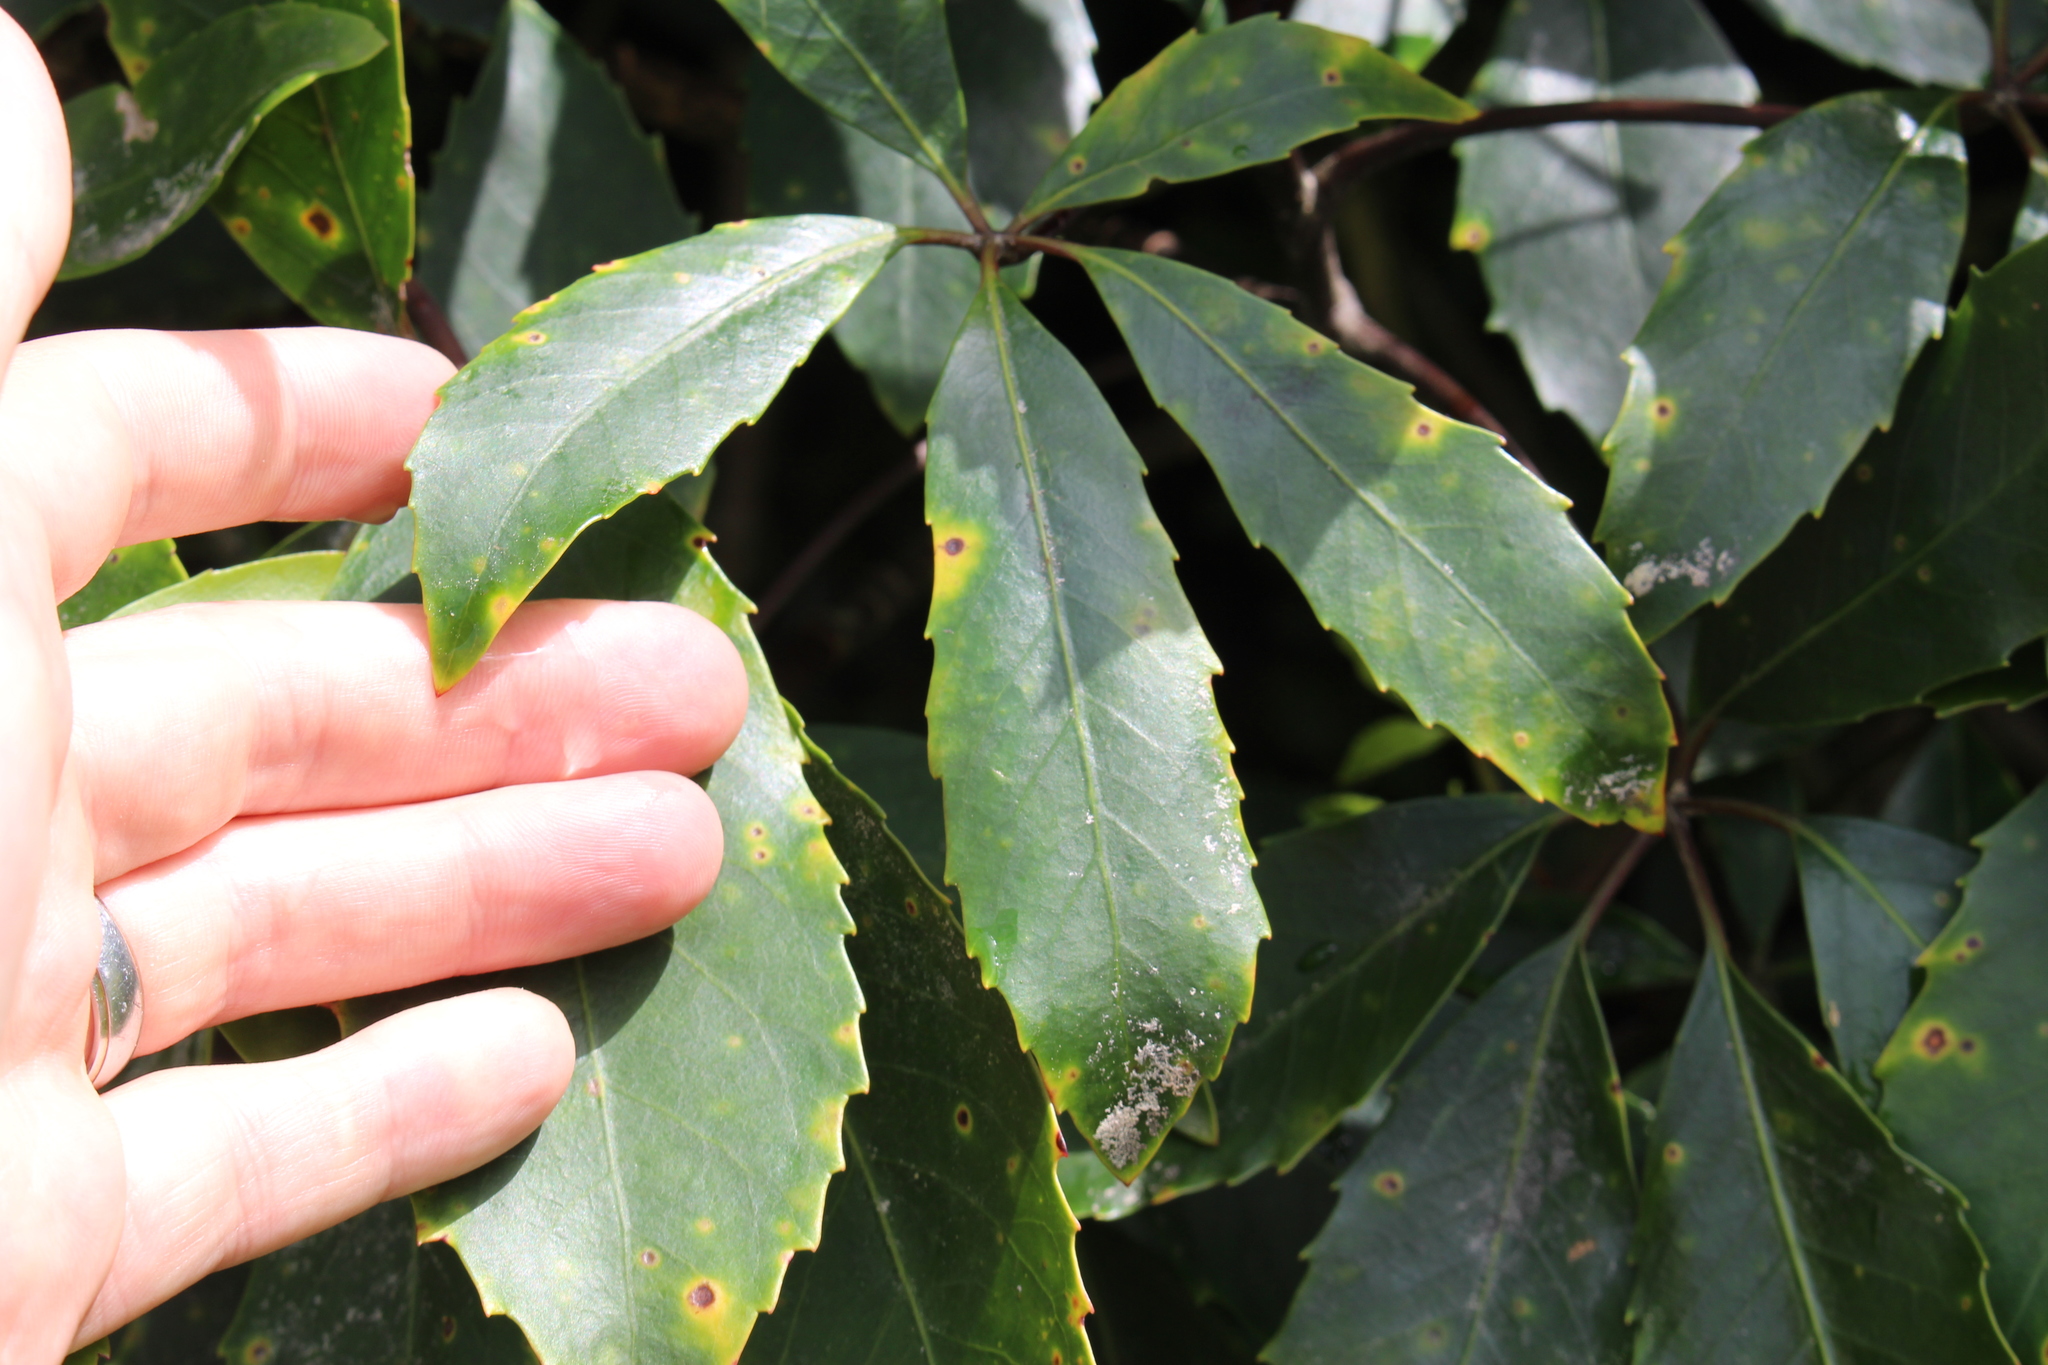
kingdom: Plantae
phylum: Tracheophyta
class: Magnoliopsida
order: Apiales
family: Araliaceae
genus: Neopanax
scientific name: Neopanax arboreus
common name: Five-fingers
